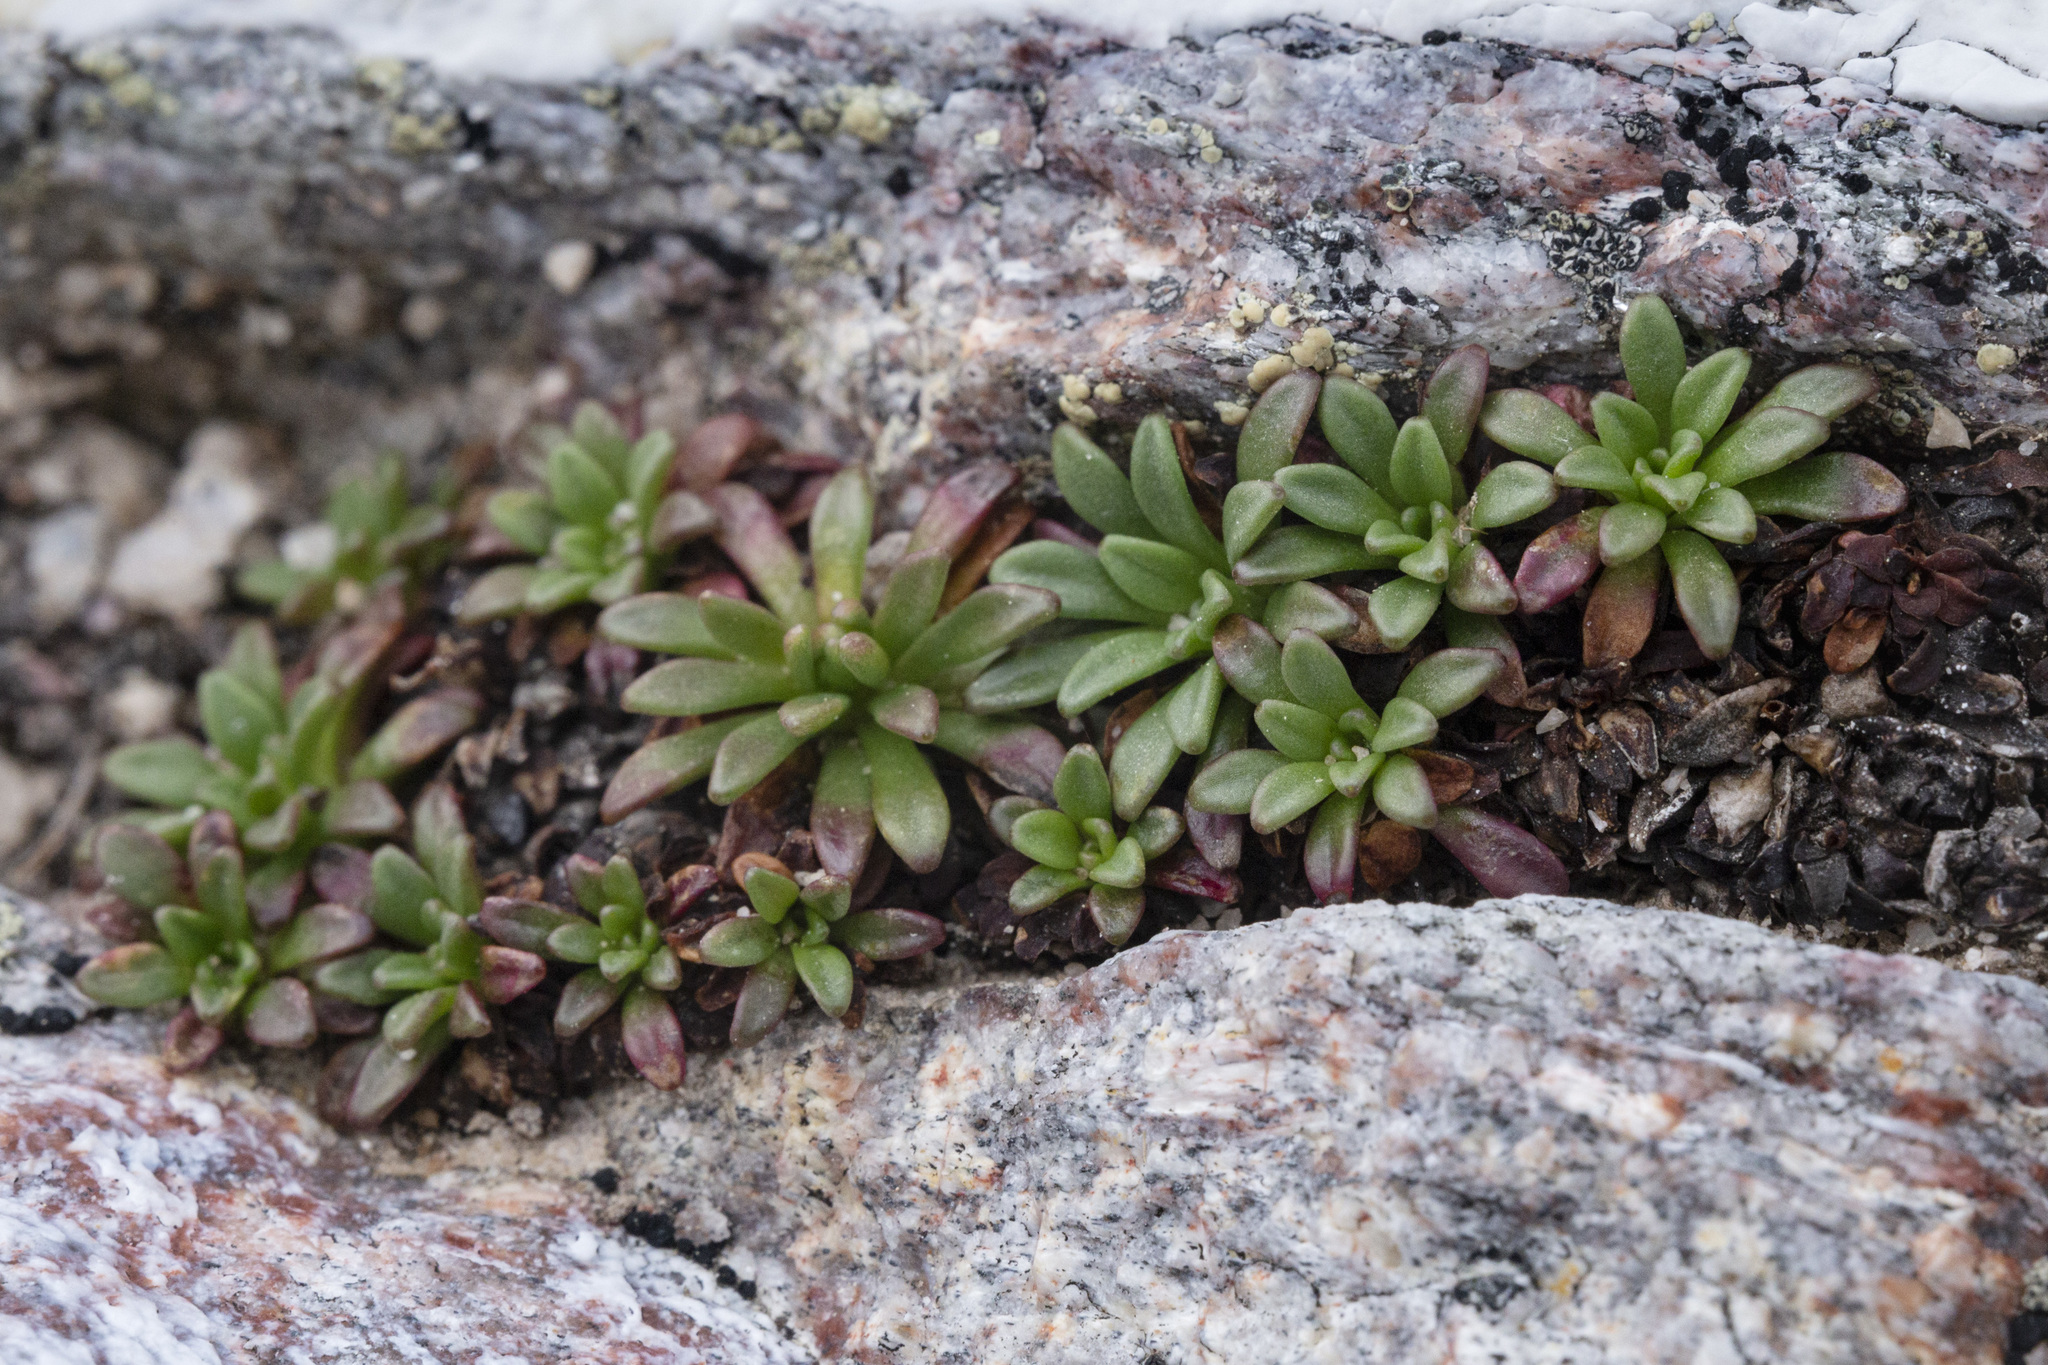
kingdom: Plantae
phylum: Tracheophyta
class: Magnoliopsida
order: Saxifragales
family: Saxifragaceae
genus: Saxifraga
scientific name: Saxifraga chrysantha
